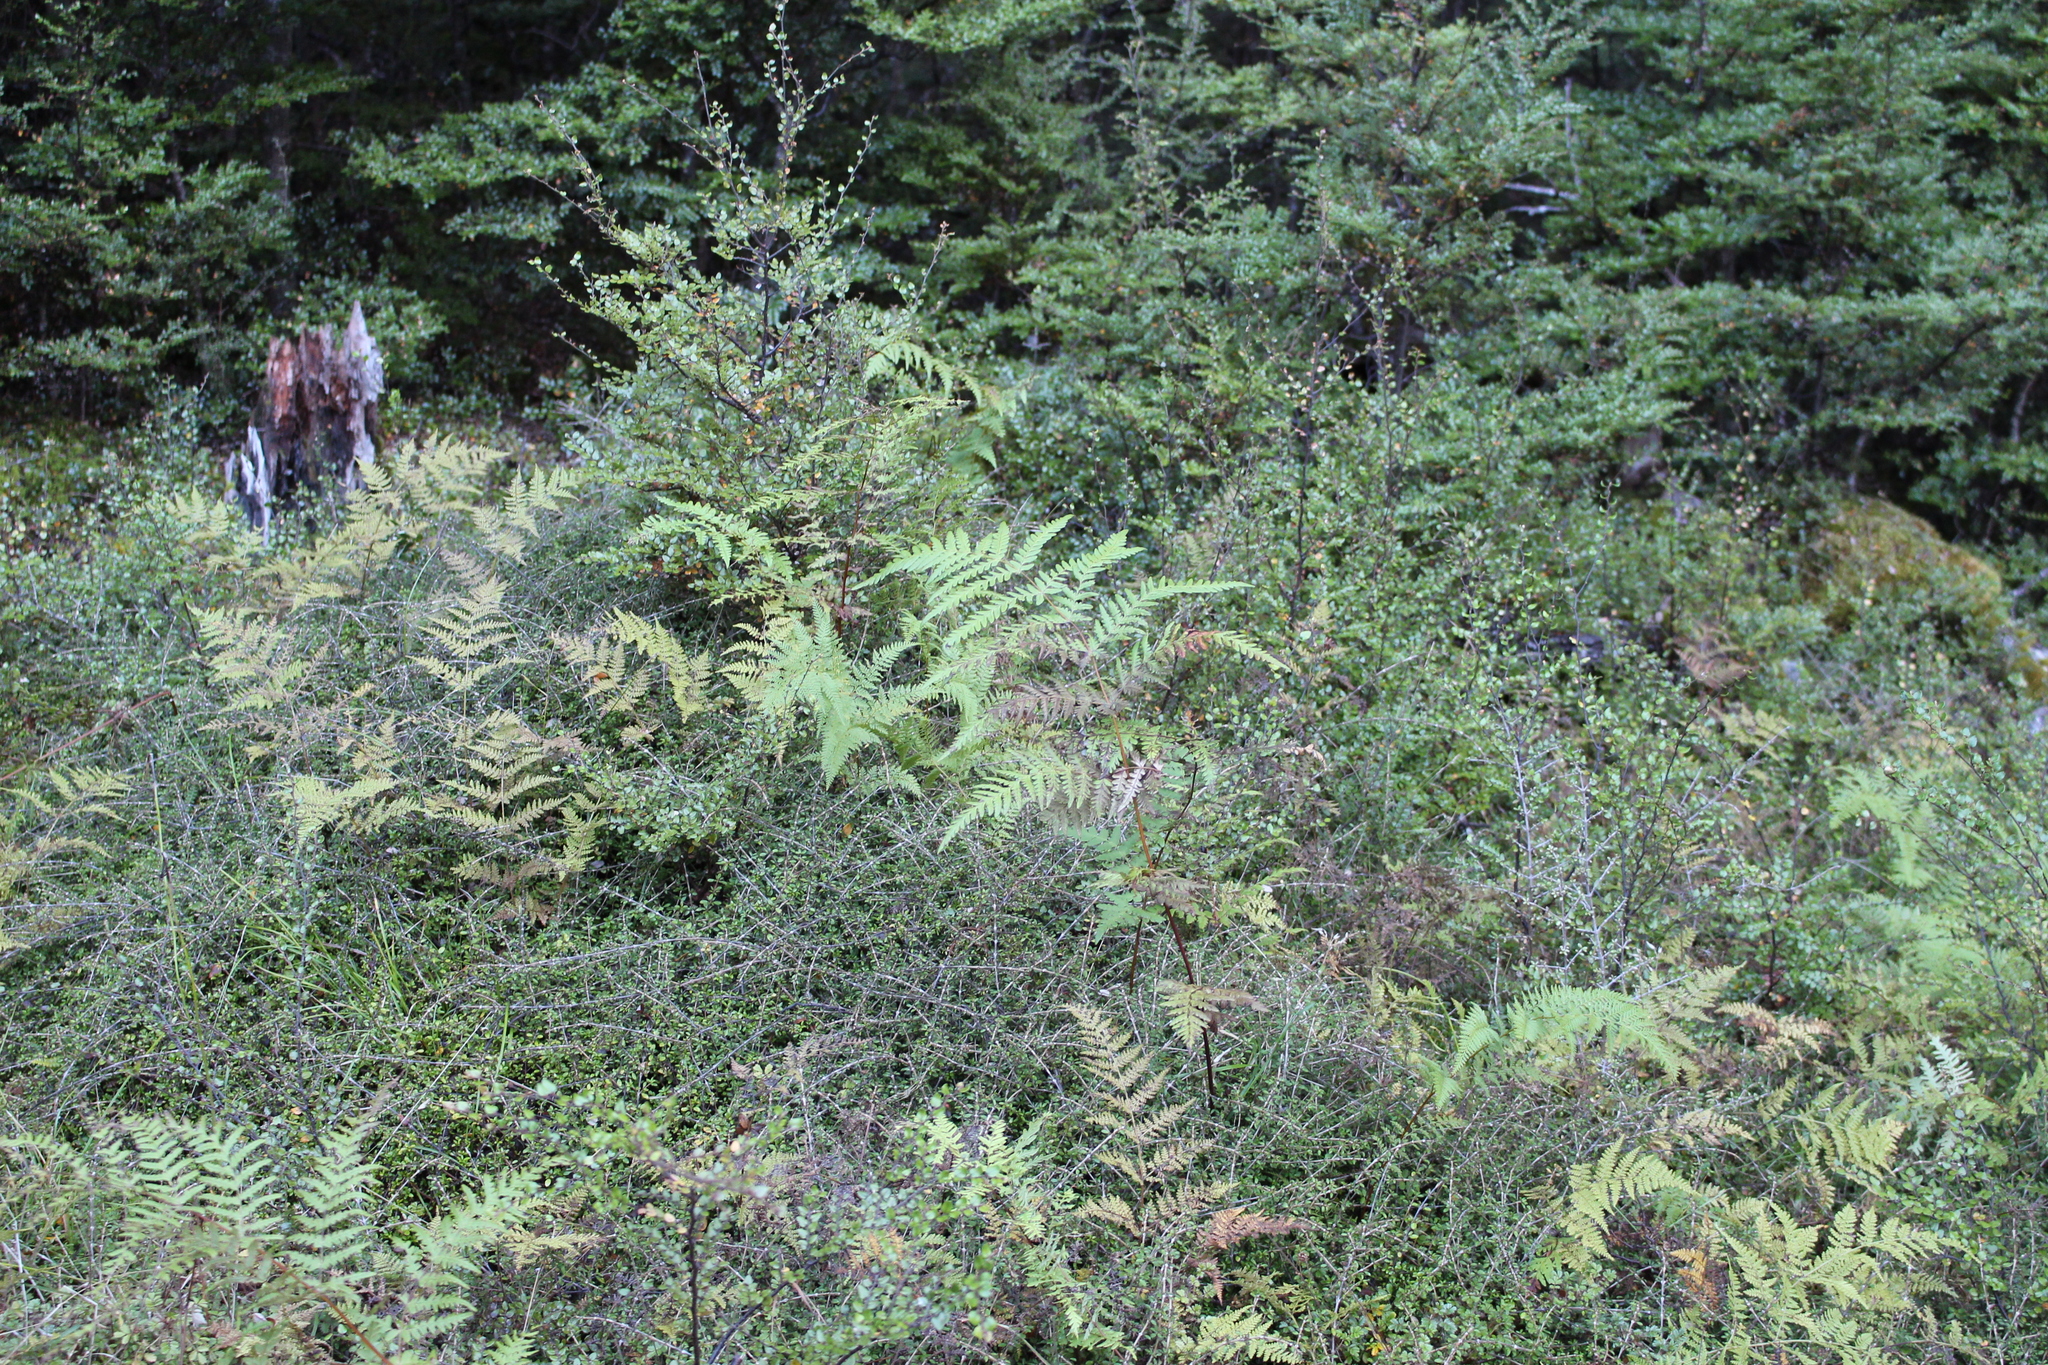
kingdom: Plantae
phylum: Tracheophyta
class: Polypodiopsida
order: Polypodiales
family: Dennstaedtiaceae
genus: Histiopteris
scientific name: Histiopteris incisa
